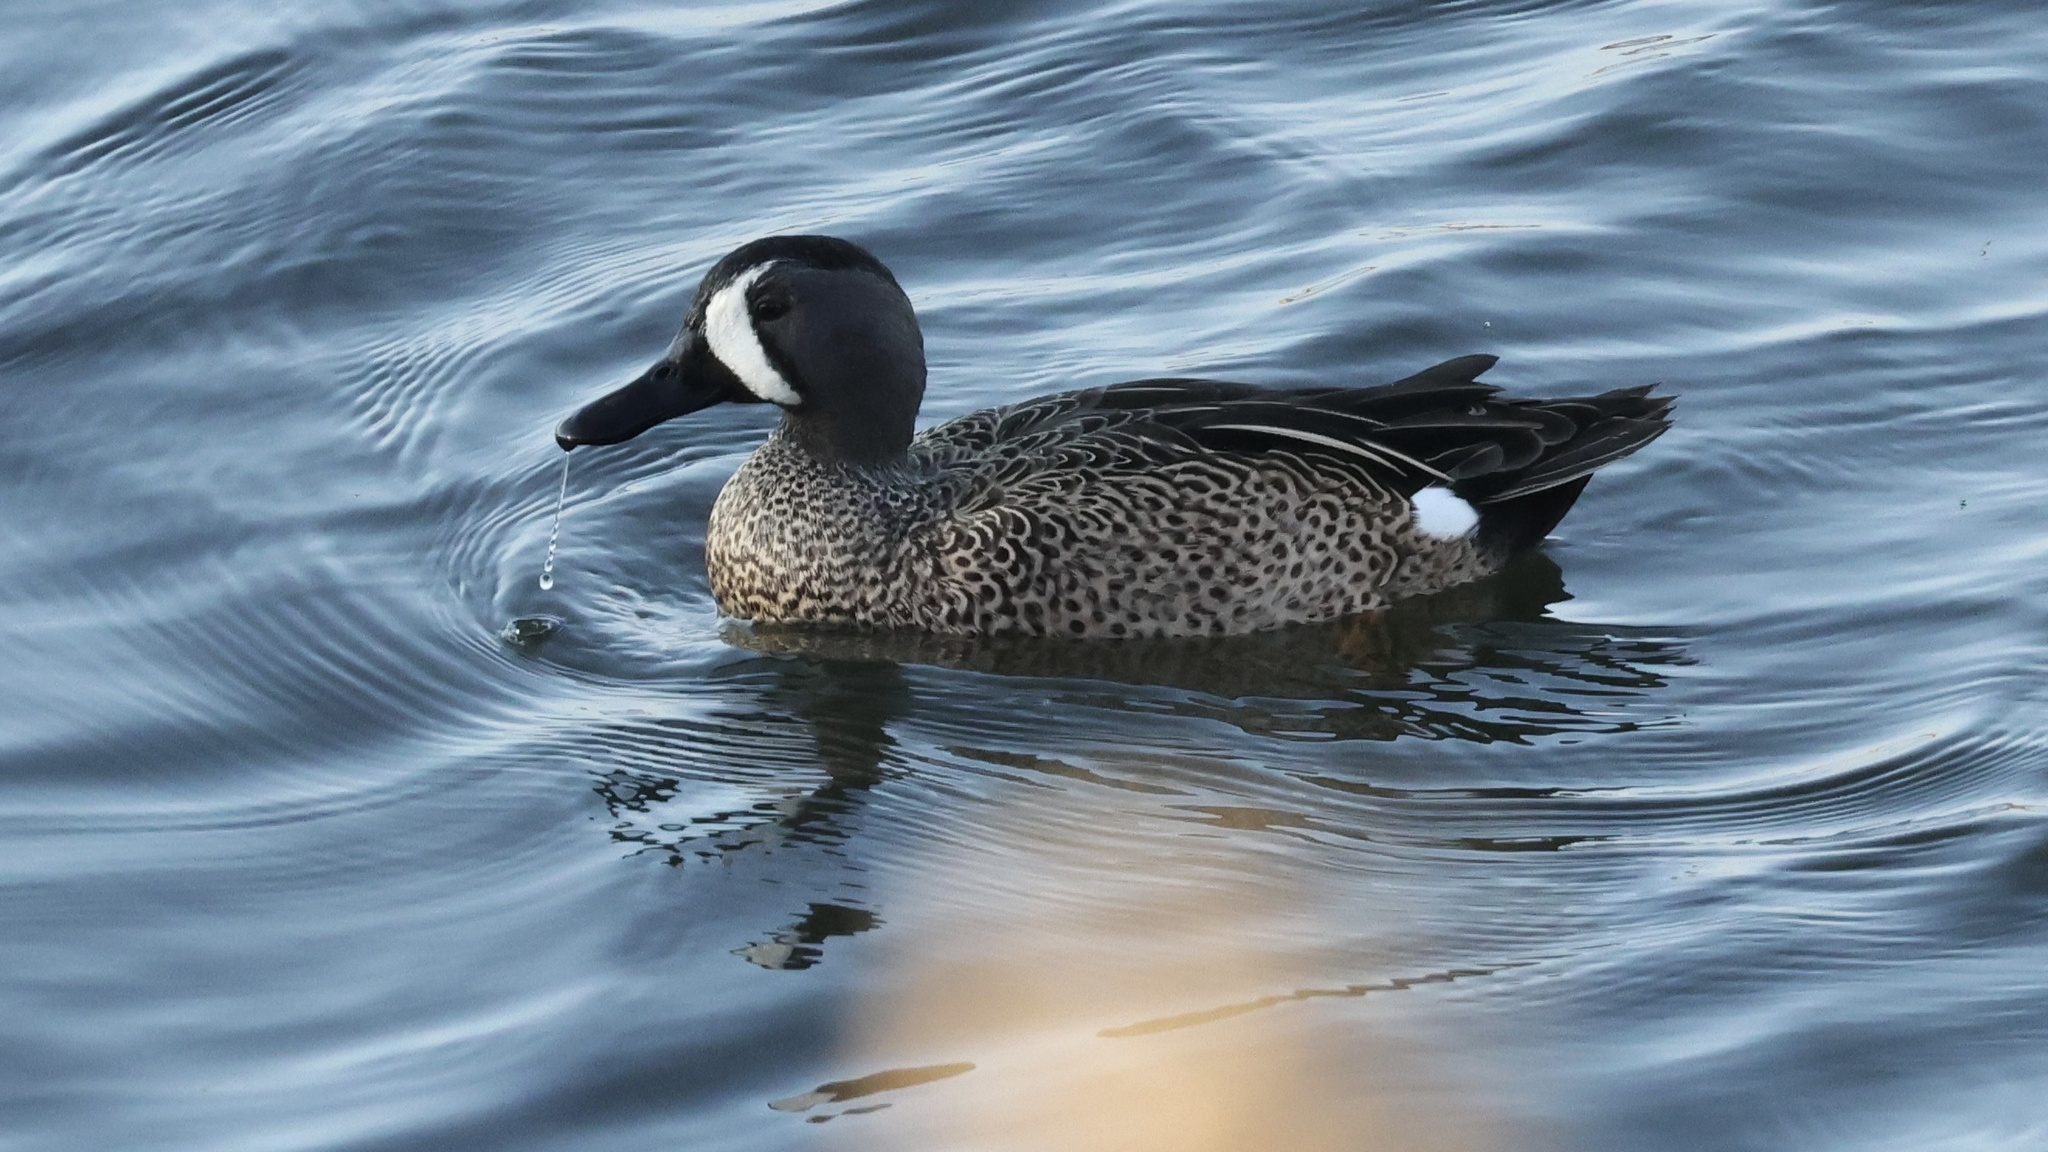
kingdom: Animalia
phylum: Chordata
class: Aves
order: Anseriformes
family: Anatidae
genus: Spatula
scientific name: Spatula discors
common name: Blue-winged teal
